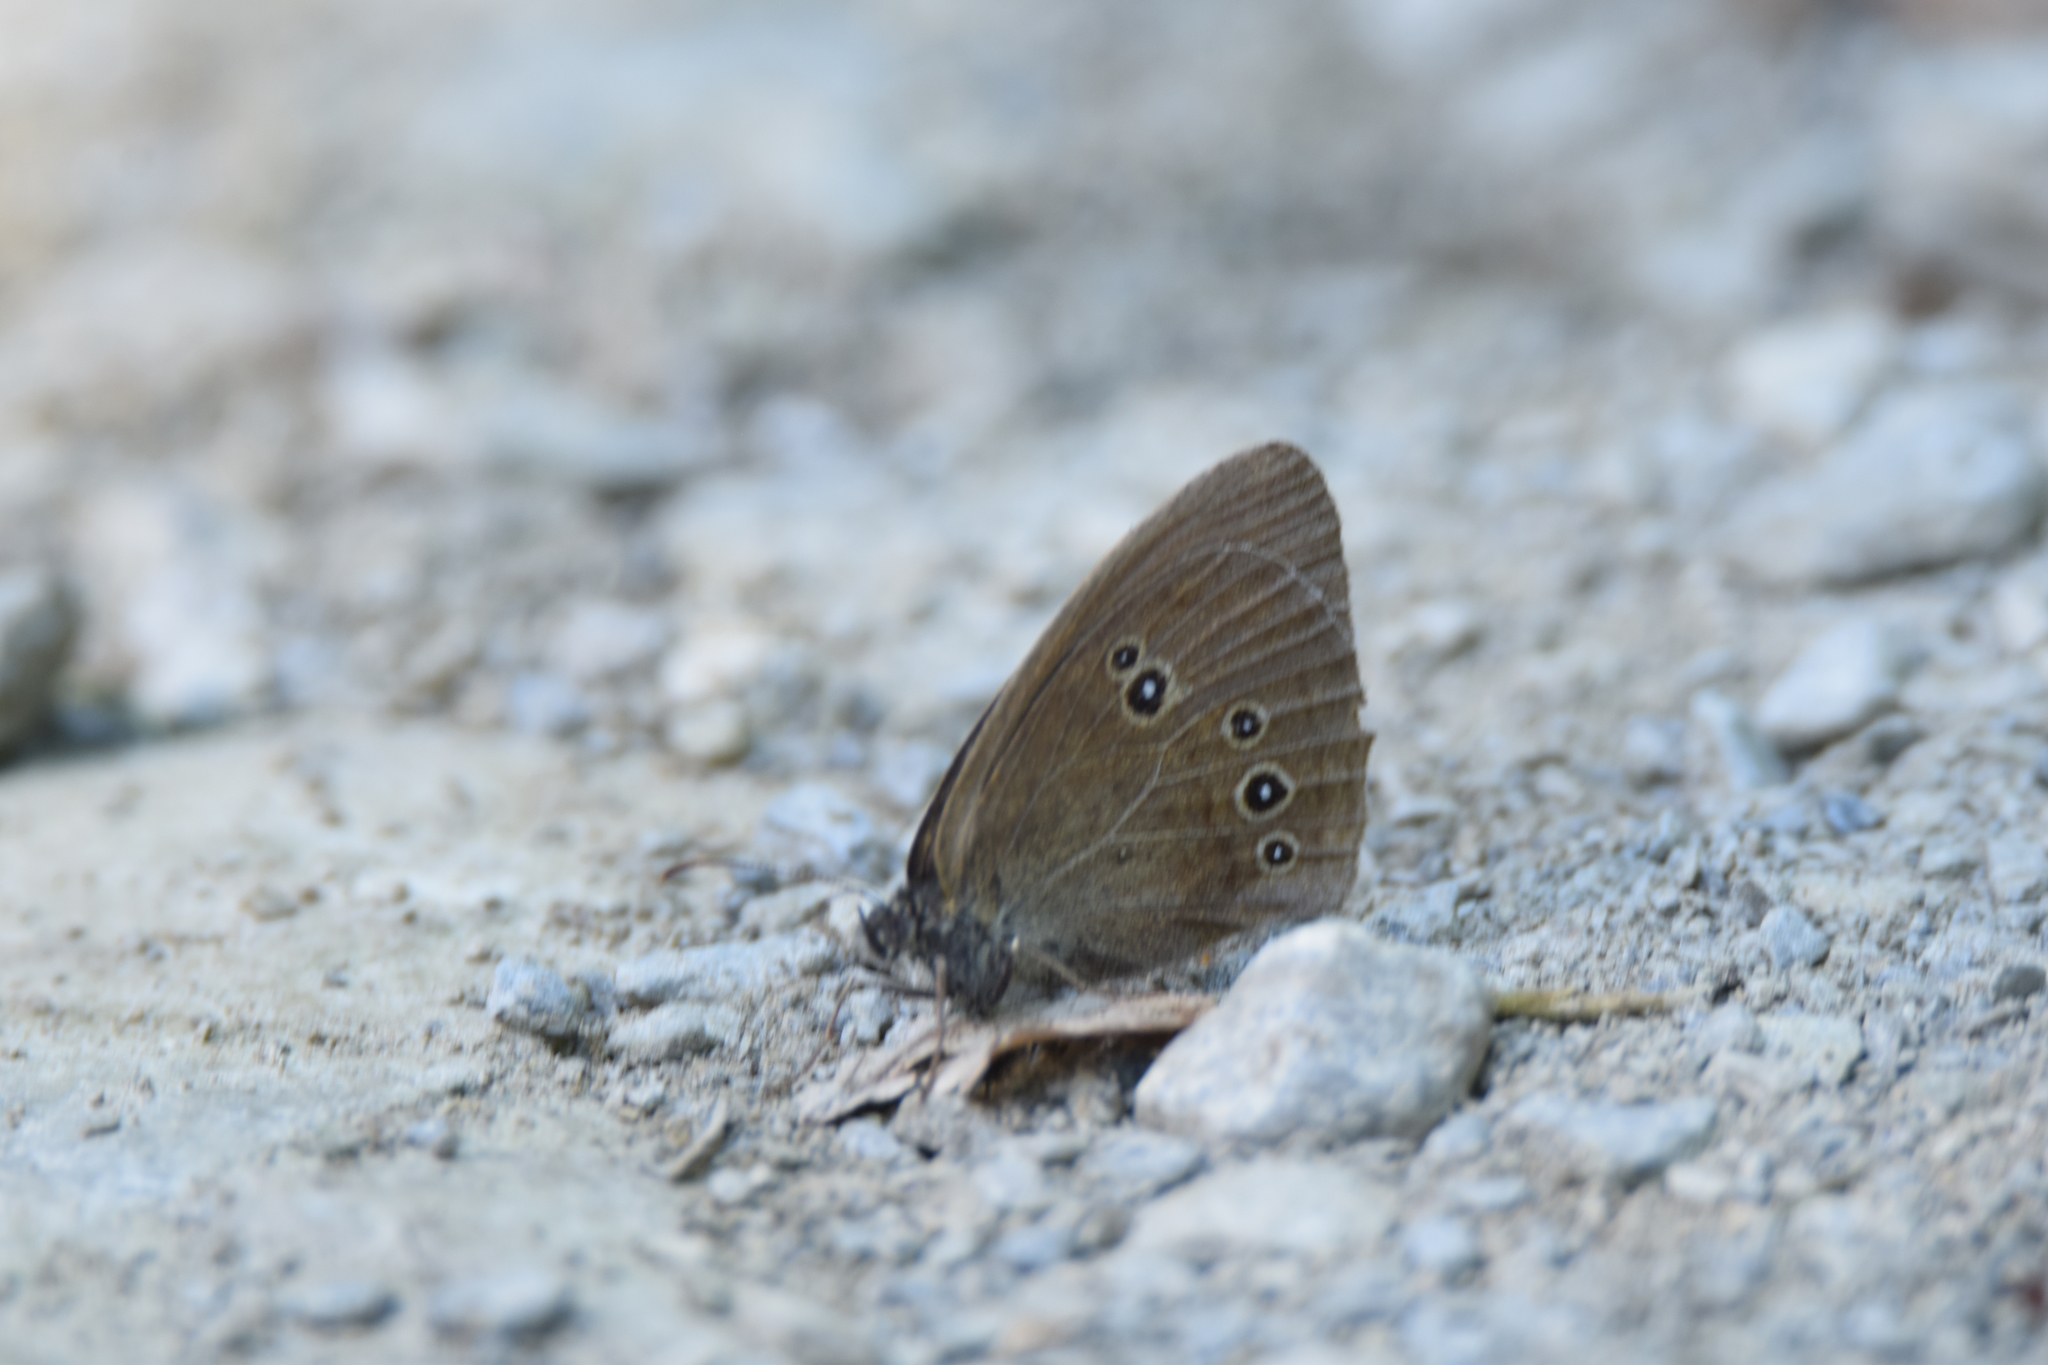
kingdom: Animalia
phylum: Arthropoda
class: Insecta
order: Lepidoptera
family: Nymphalidae
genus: Aphantopus
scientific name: Aphantopus hyperantus
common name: Ringlet
